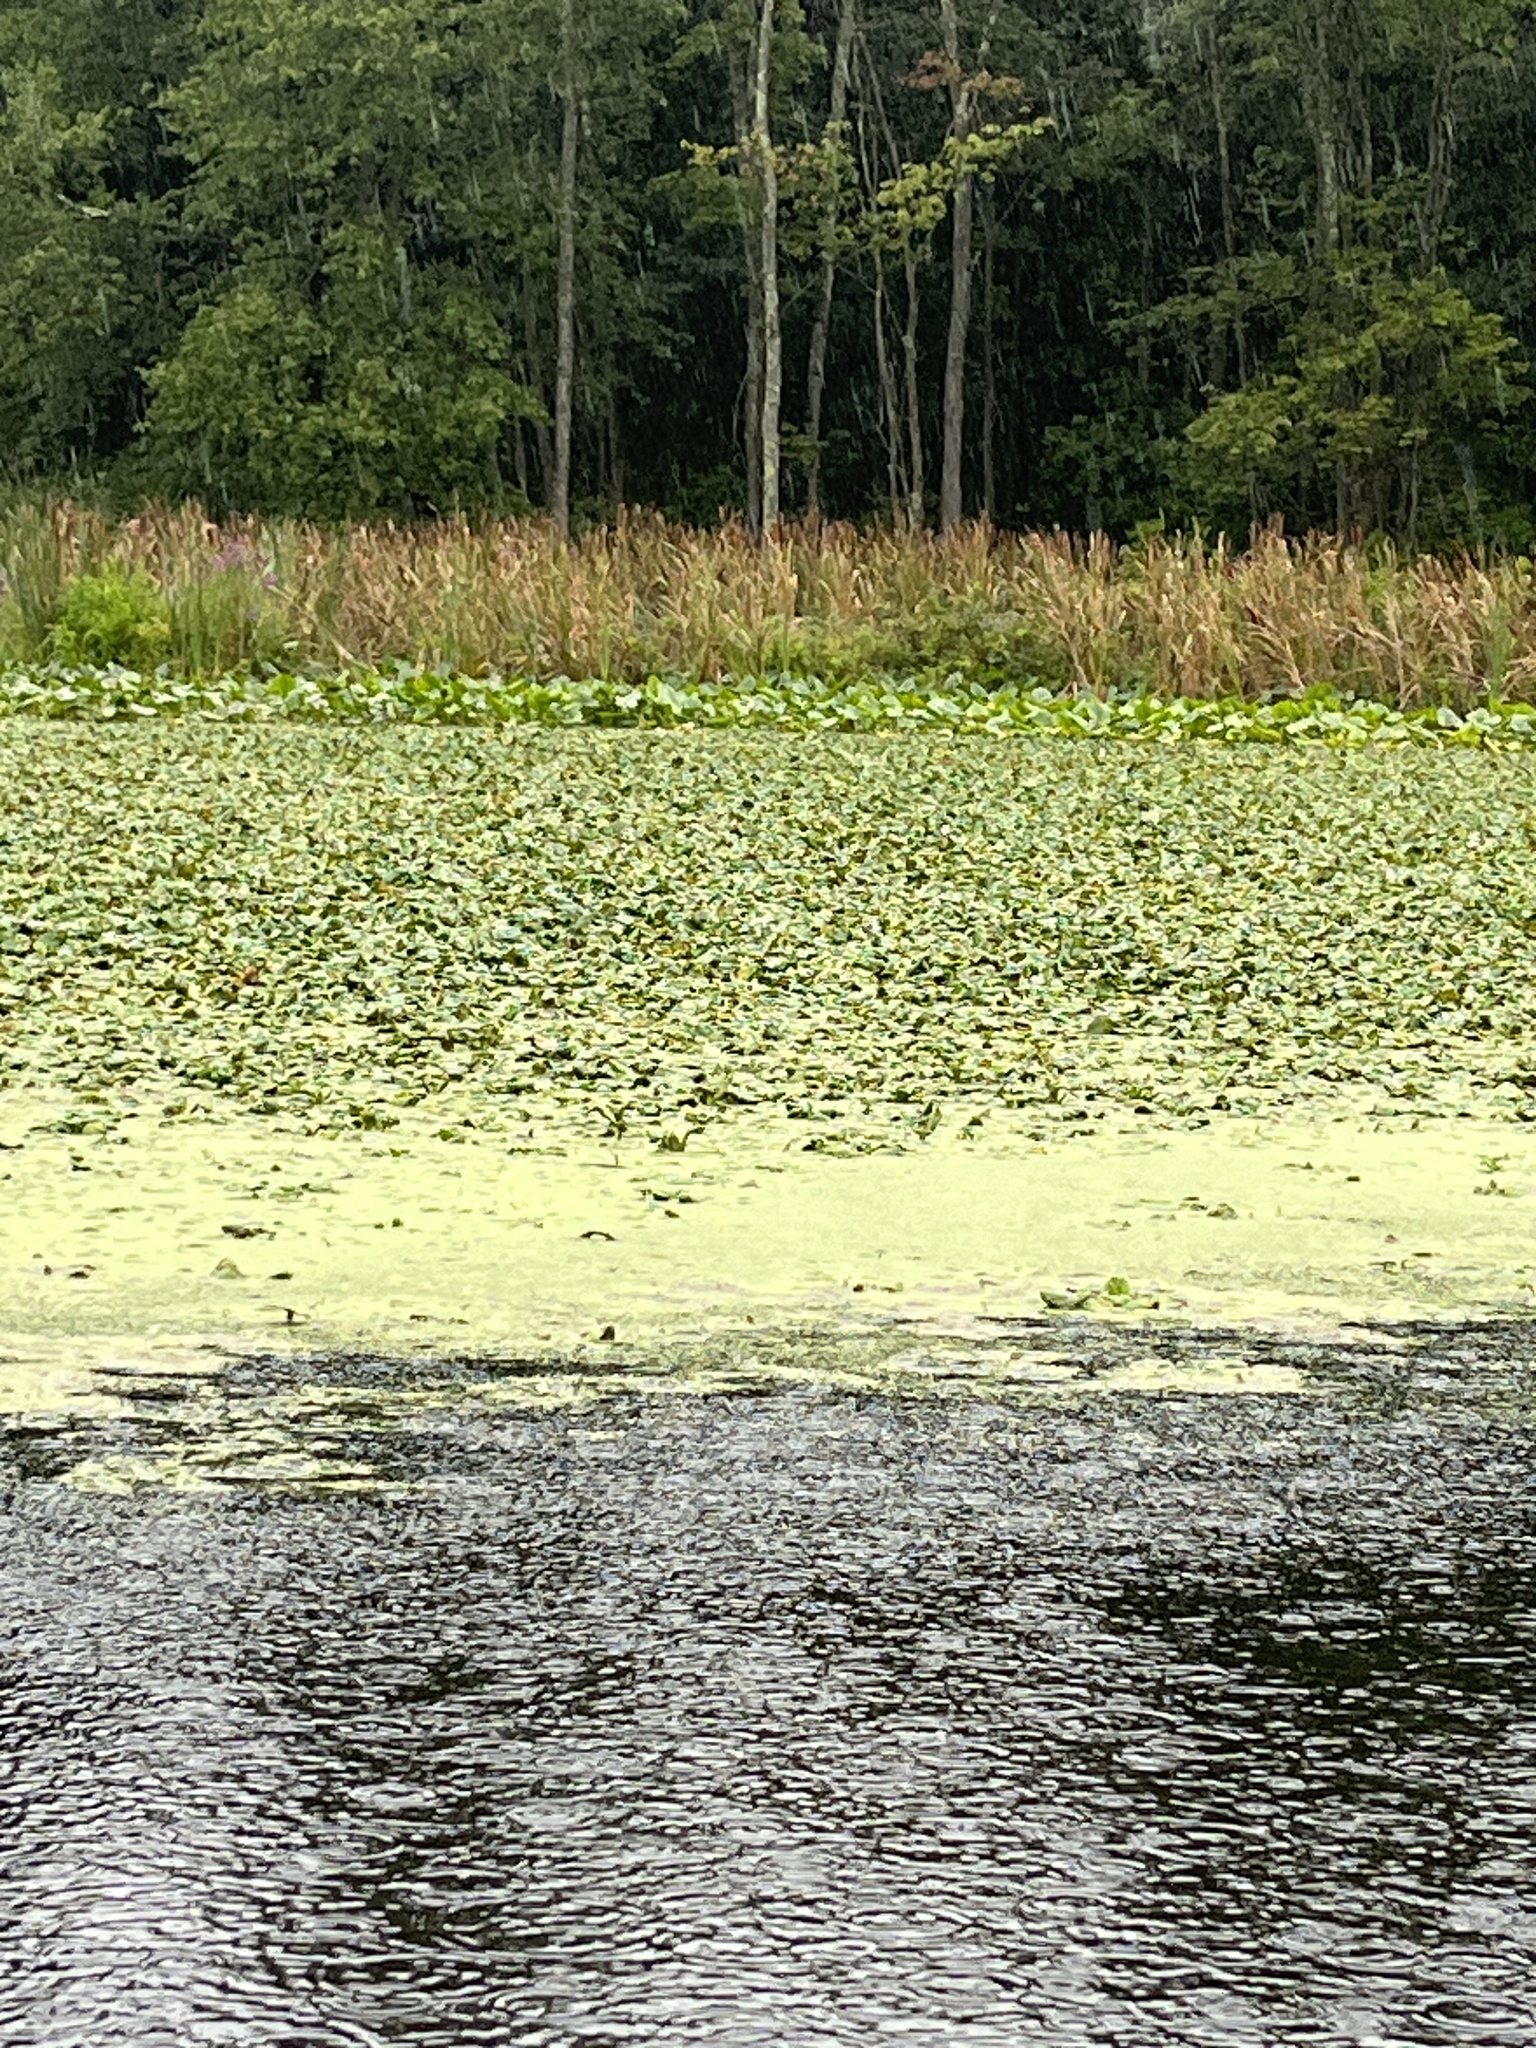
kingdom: Plantae
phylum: Tracheophyta
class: Magnoliopsida
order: Myrtales
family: Lythraceae
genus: Trapa
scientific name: Trapa natans
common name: Water chestnut
